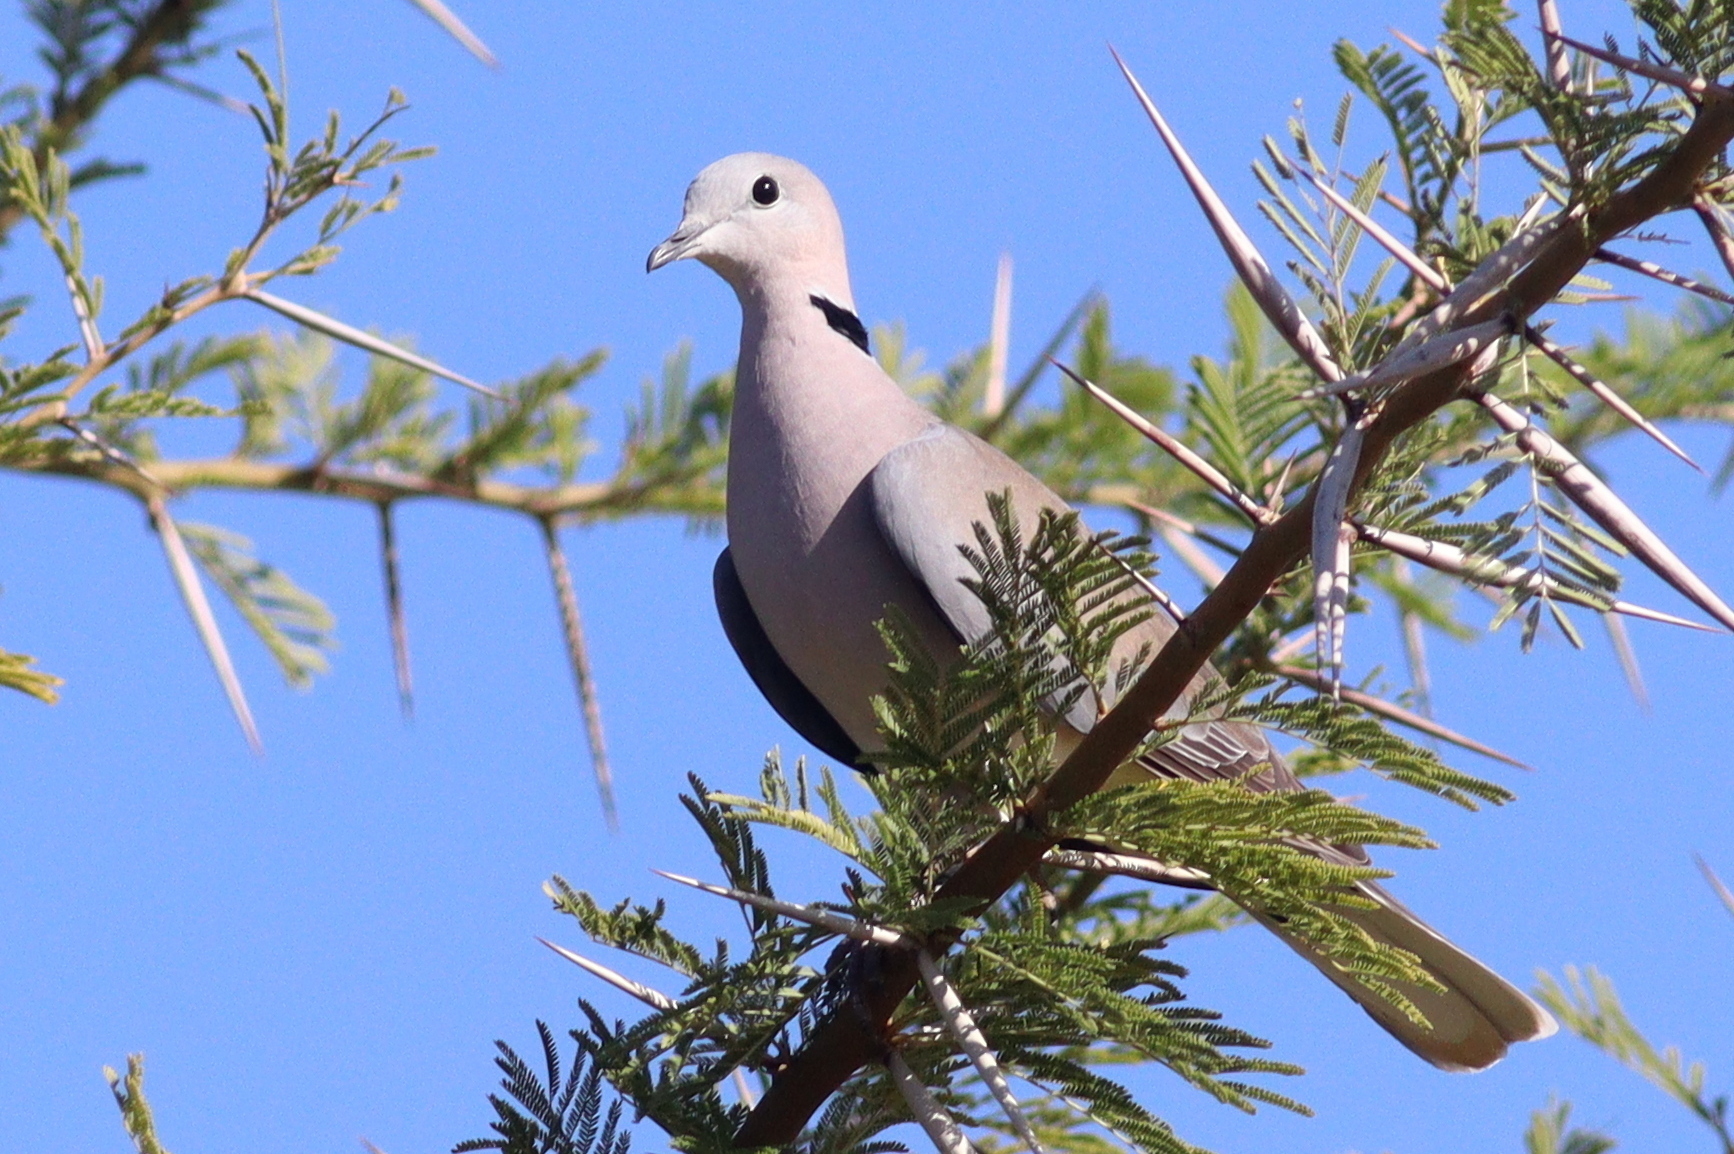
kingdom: Animalia
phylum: Chordata
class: Aves
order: Columbiformes
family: Columbidae
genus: Streptopelia
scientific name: Streptopelia capicola
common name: Ring-necked dove
